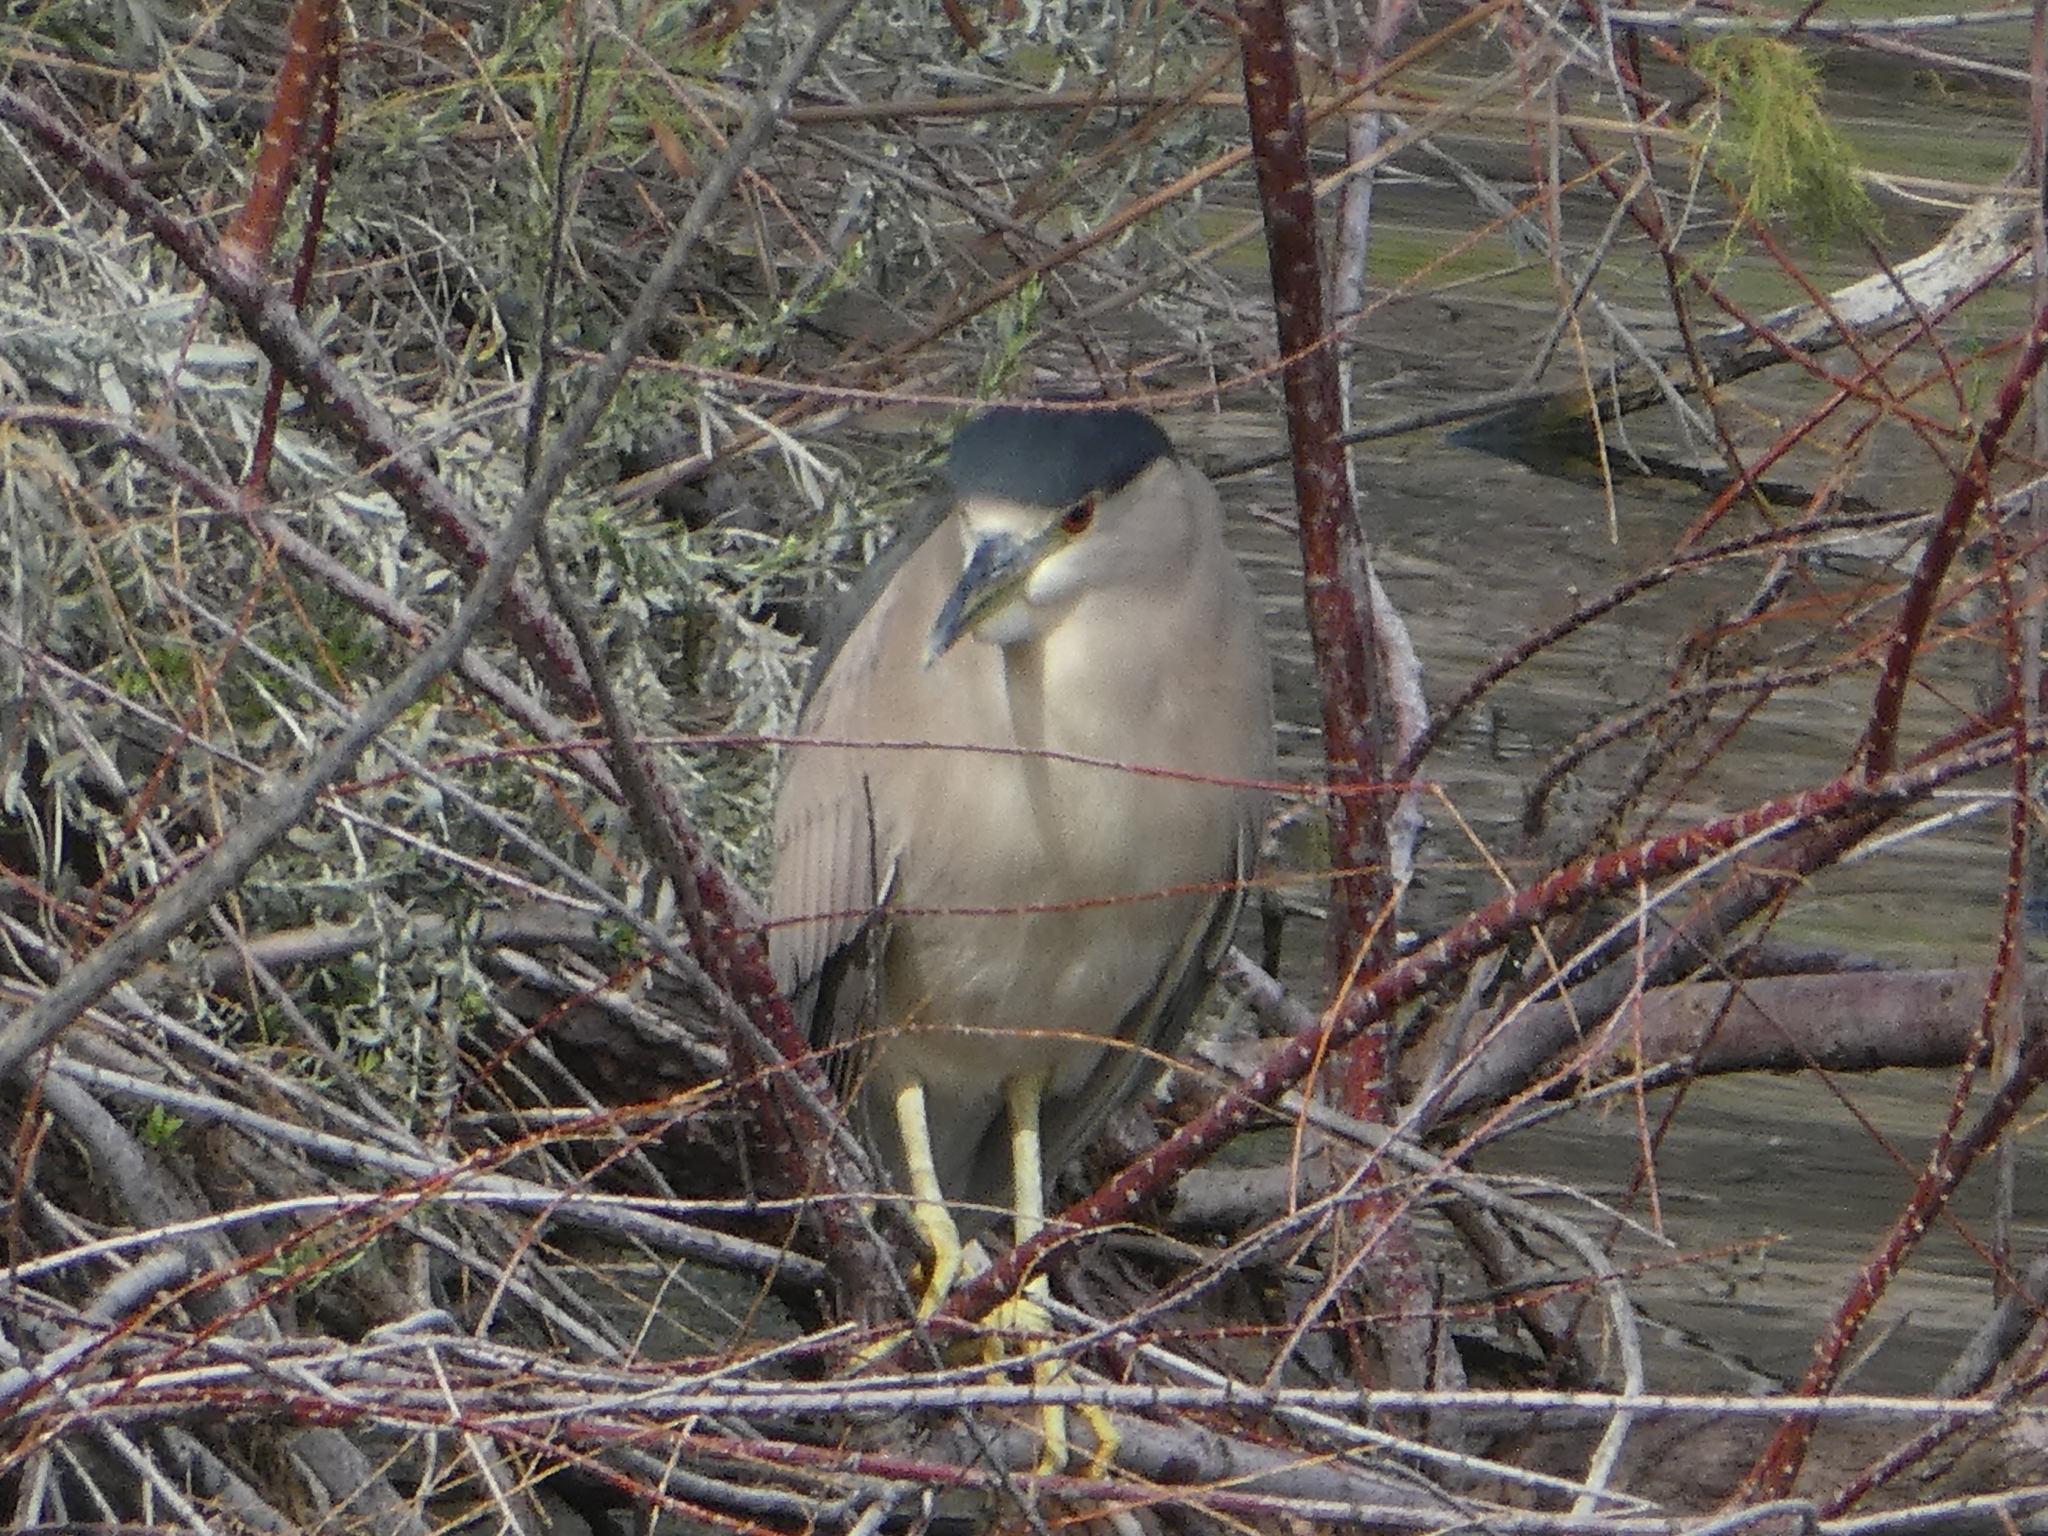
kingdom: Animalia
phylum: Chordata
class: Aves
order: Pelecaniformes
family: Ardeidae
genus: Nycticorax
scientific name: Nycticorax nycticorax
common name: Black-crowned night heron
